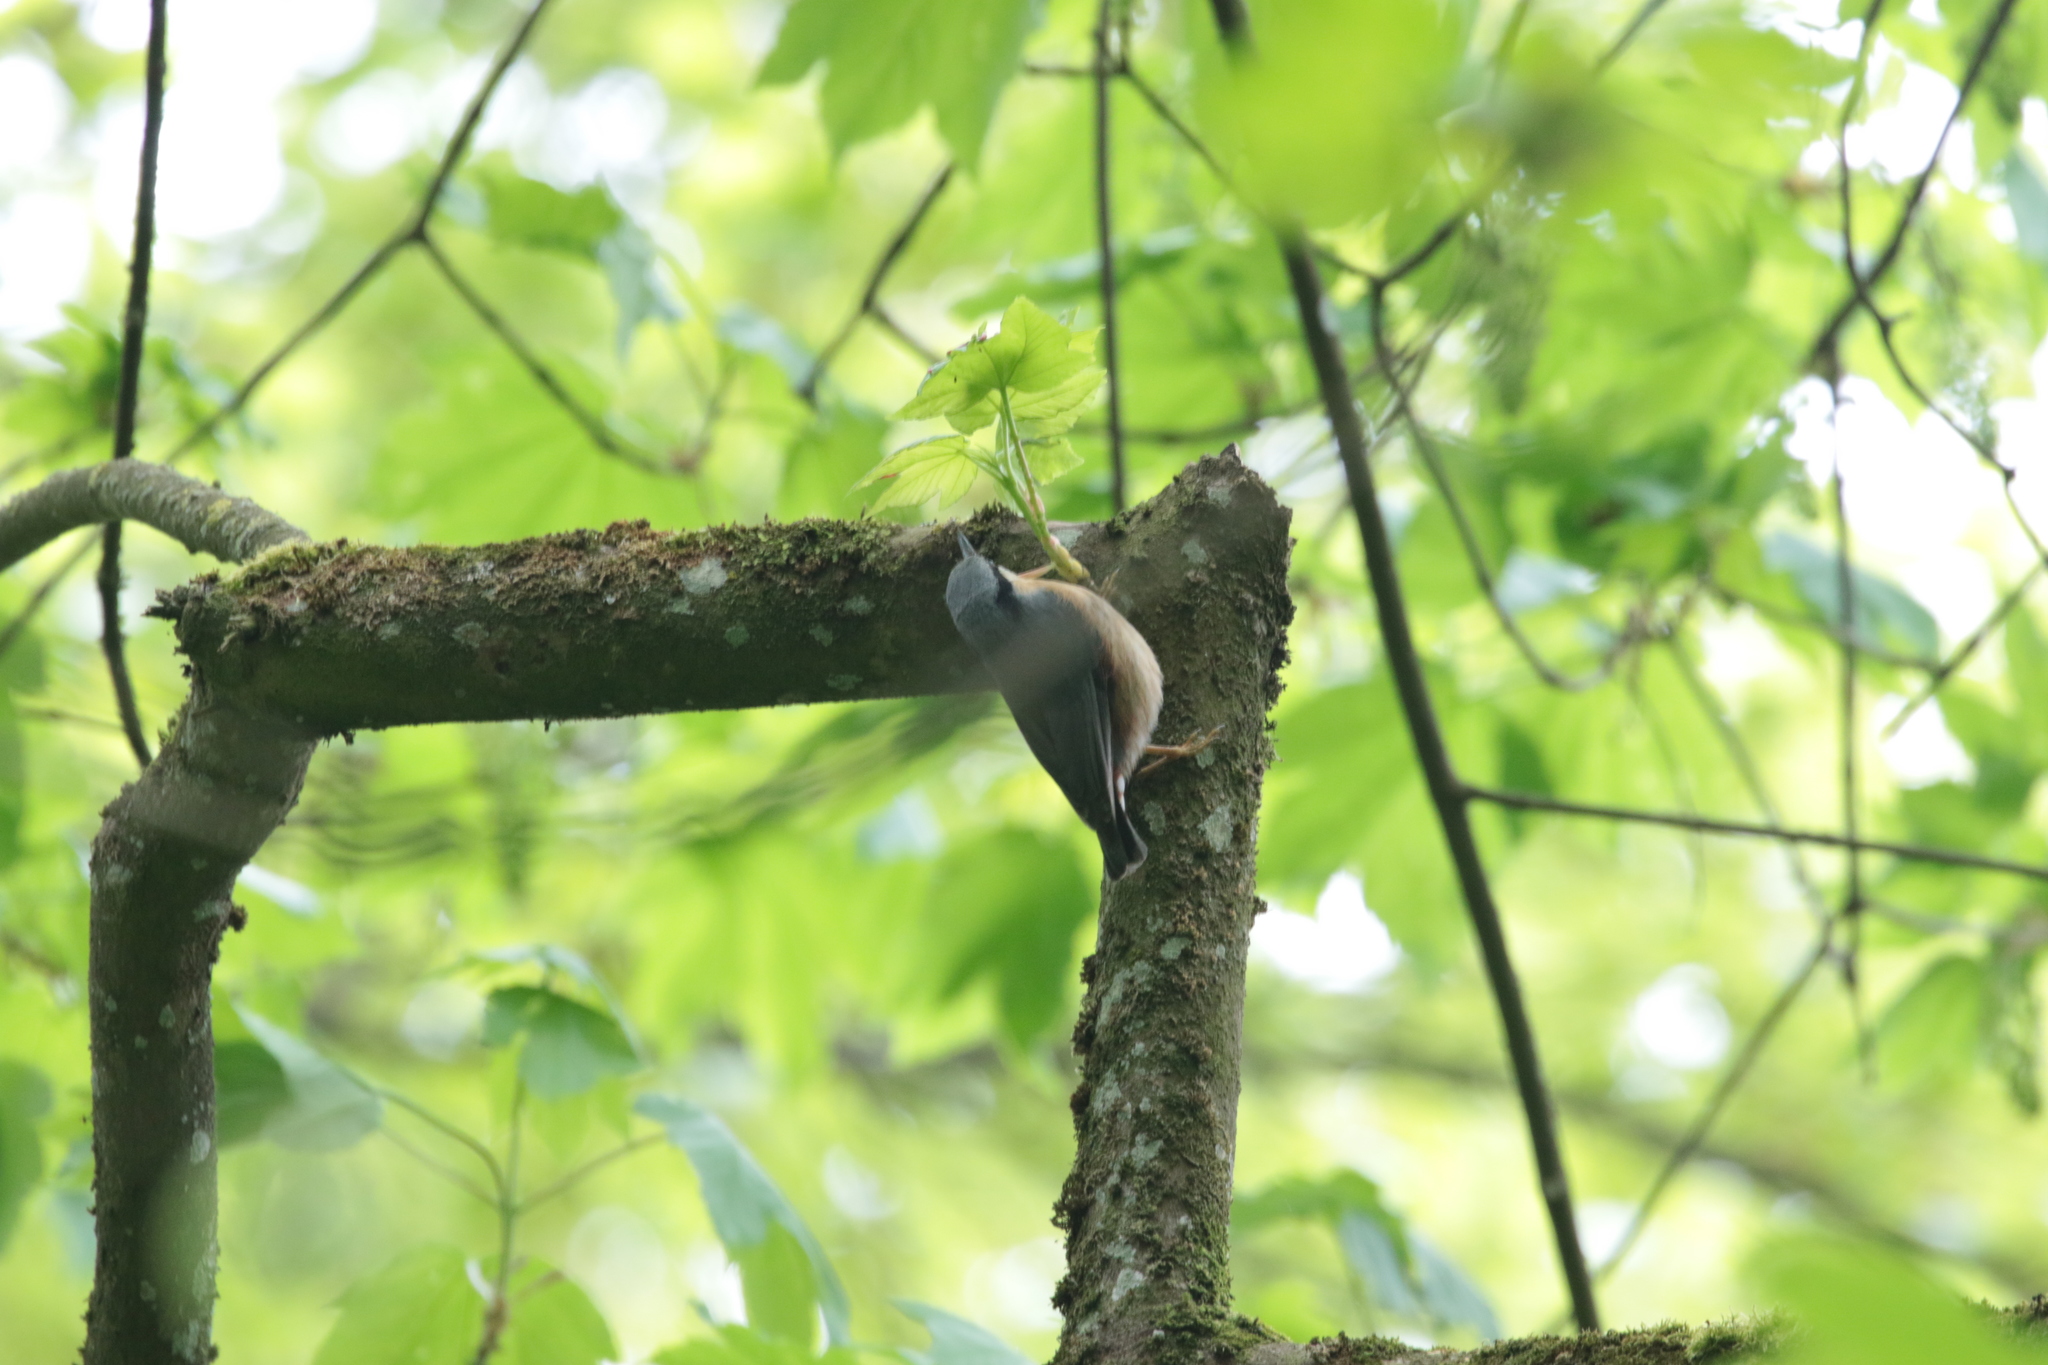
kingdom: Animalia
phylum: Chordata
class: Aves
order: Passeriformes
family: Sittidae
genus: Sitta
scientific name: Sitta europaea
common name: Eurasian nuthatch
